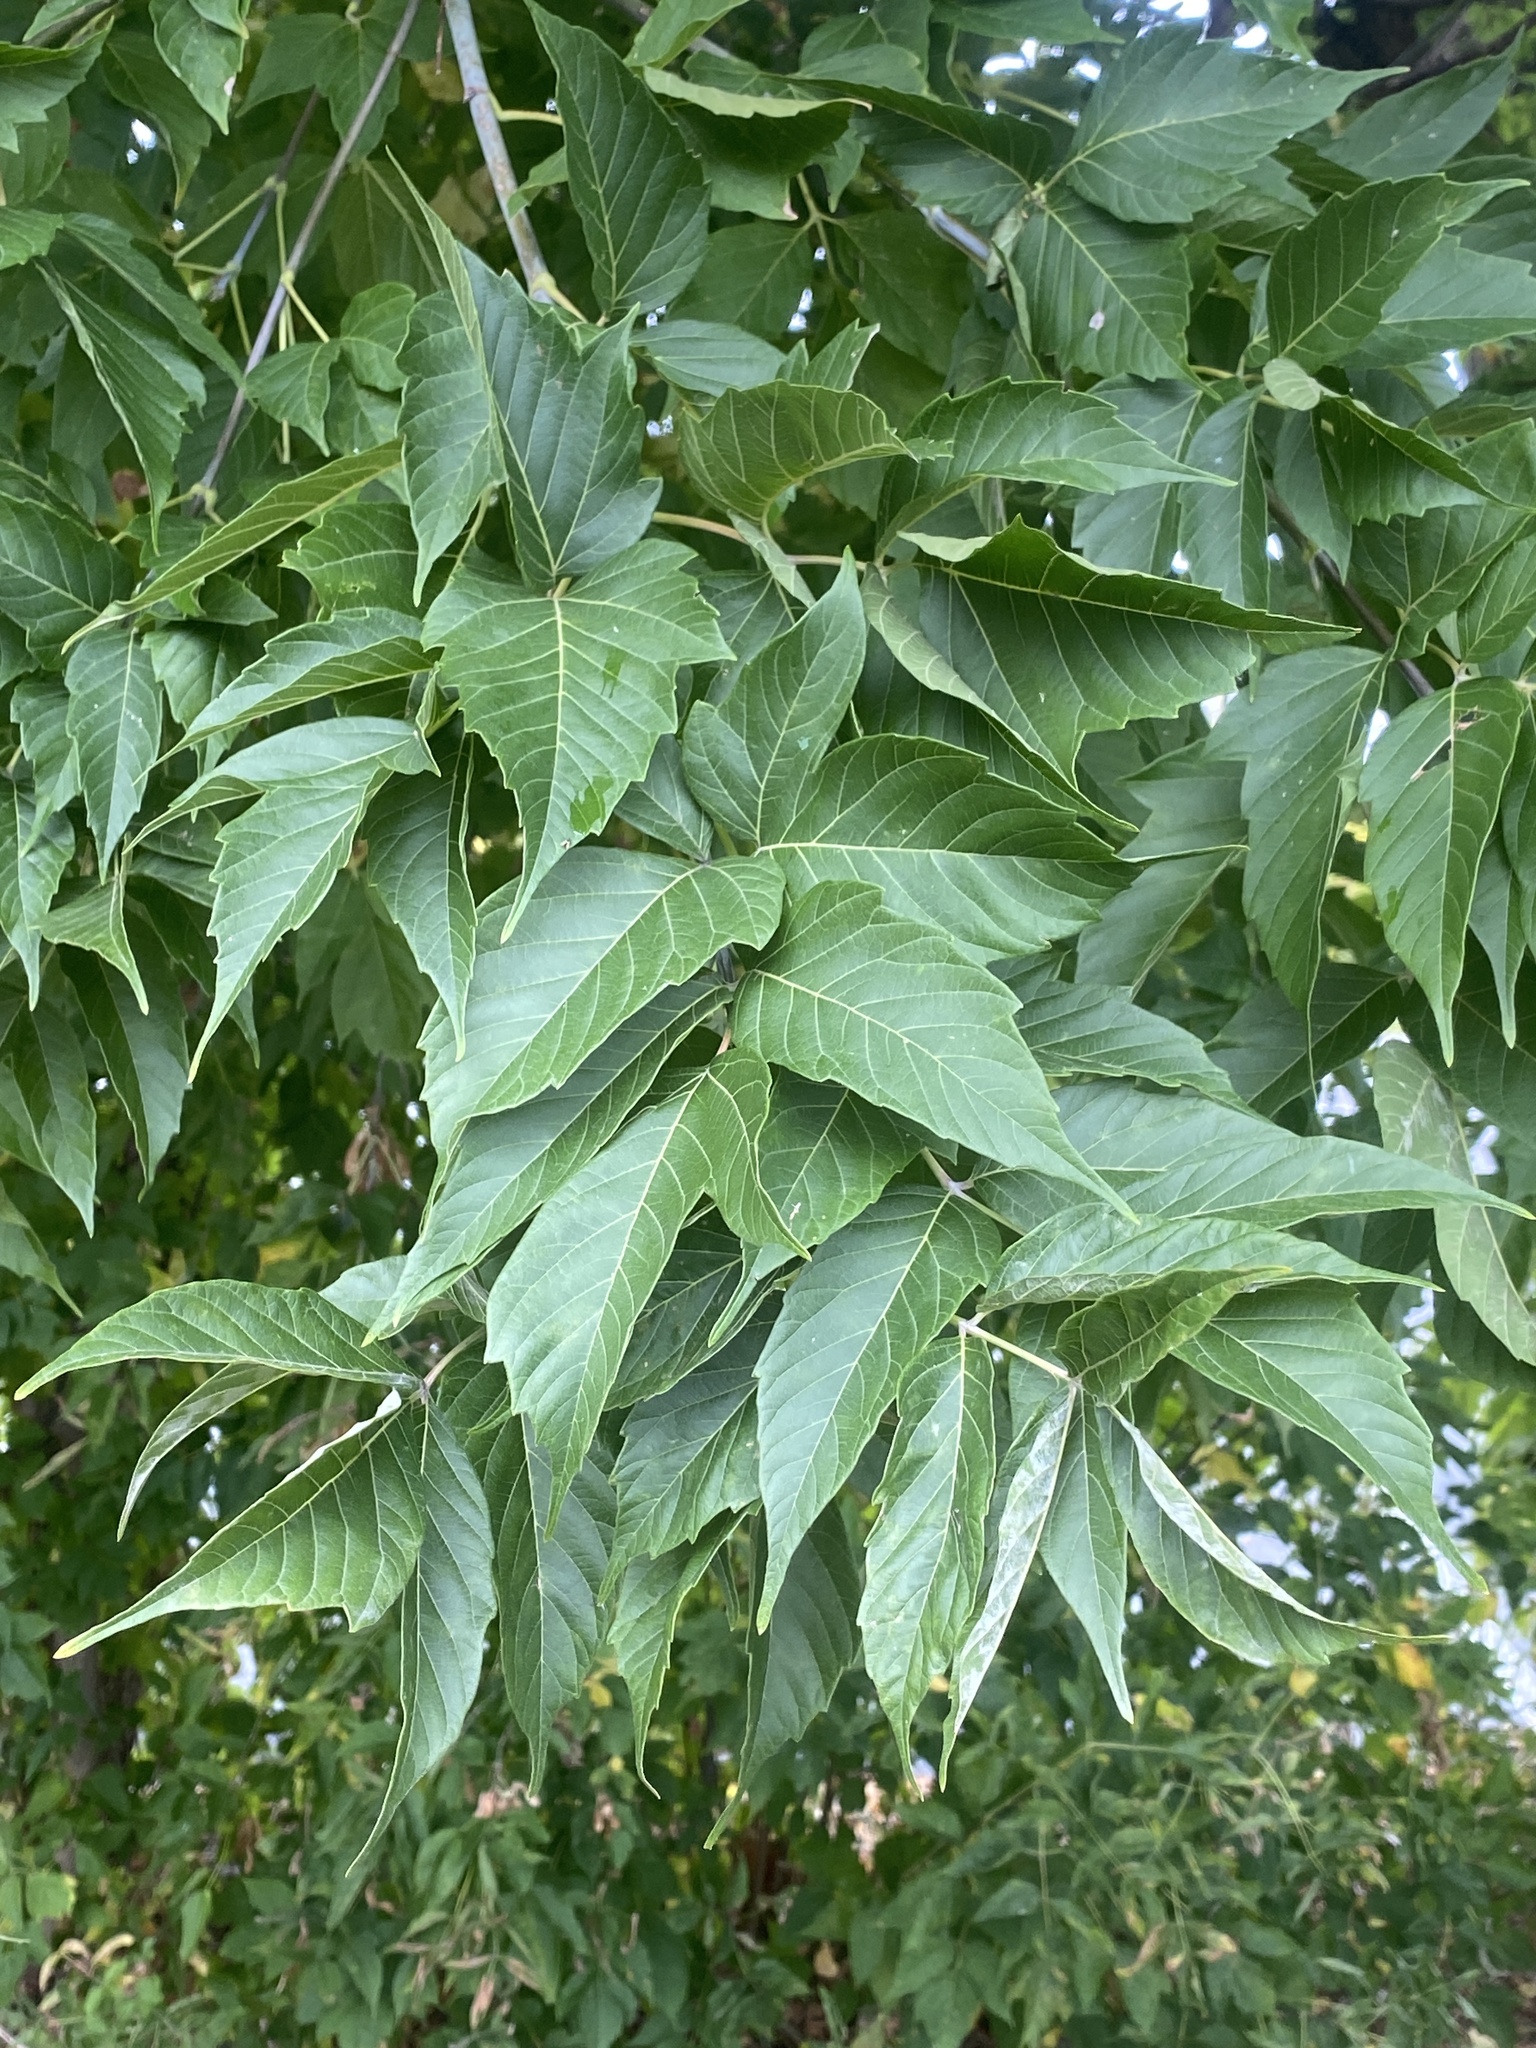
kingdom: Plantae
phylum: Tracheophyta
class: Magnoliopsida
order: Sapindales
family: Sapindaceae
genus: Acer
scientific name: Acer negundo
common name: Ashleaf maple
